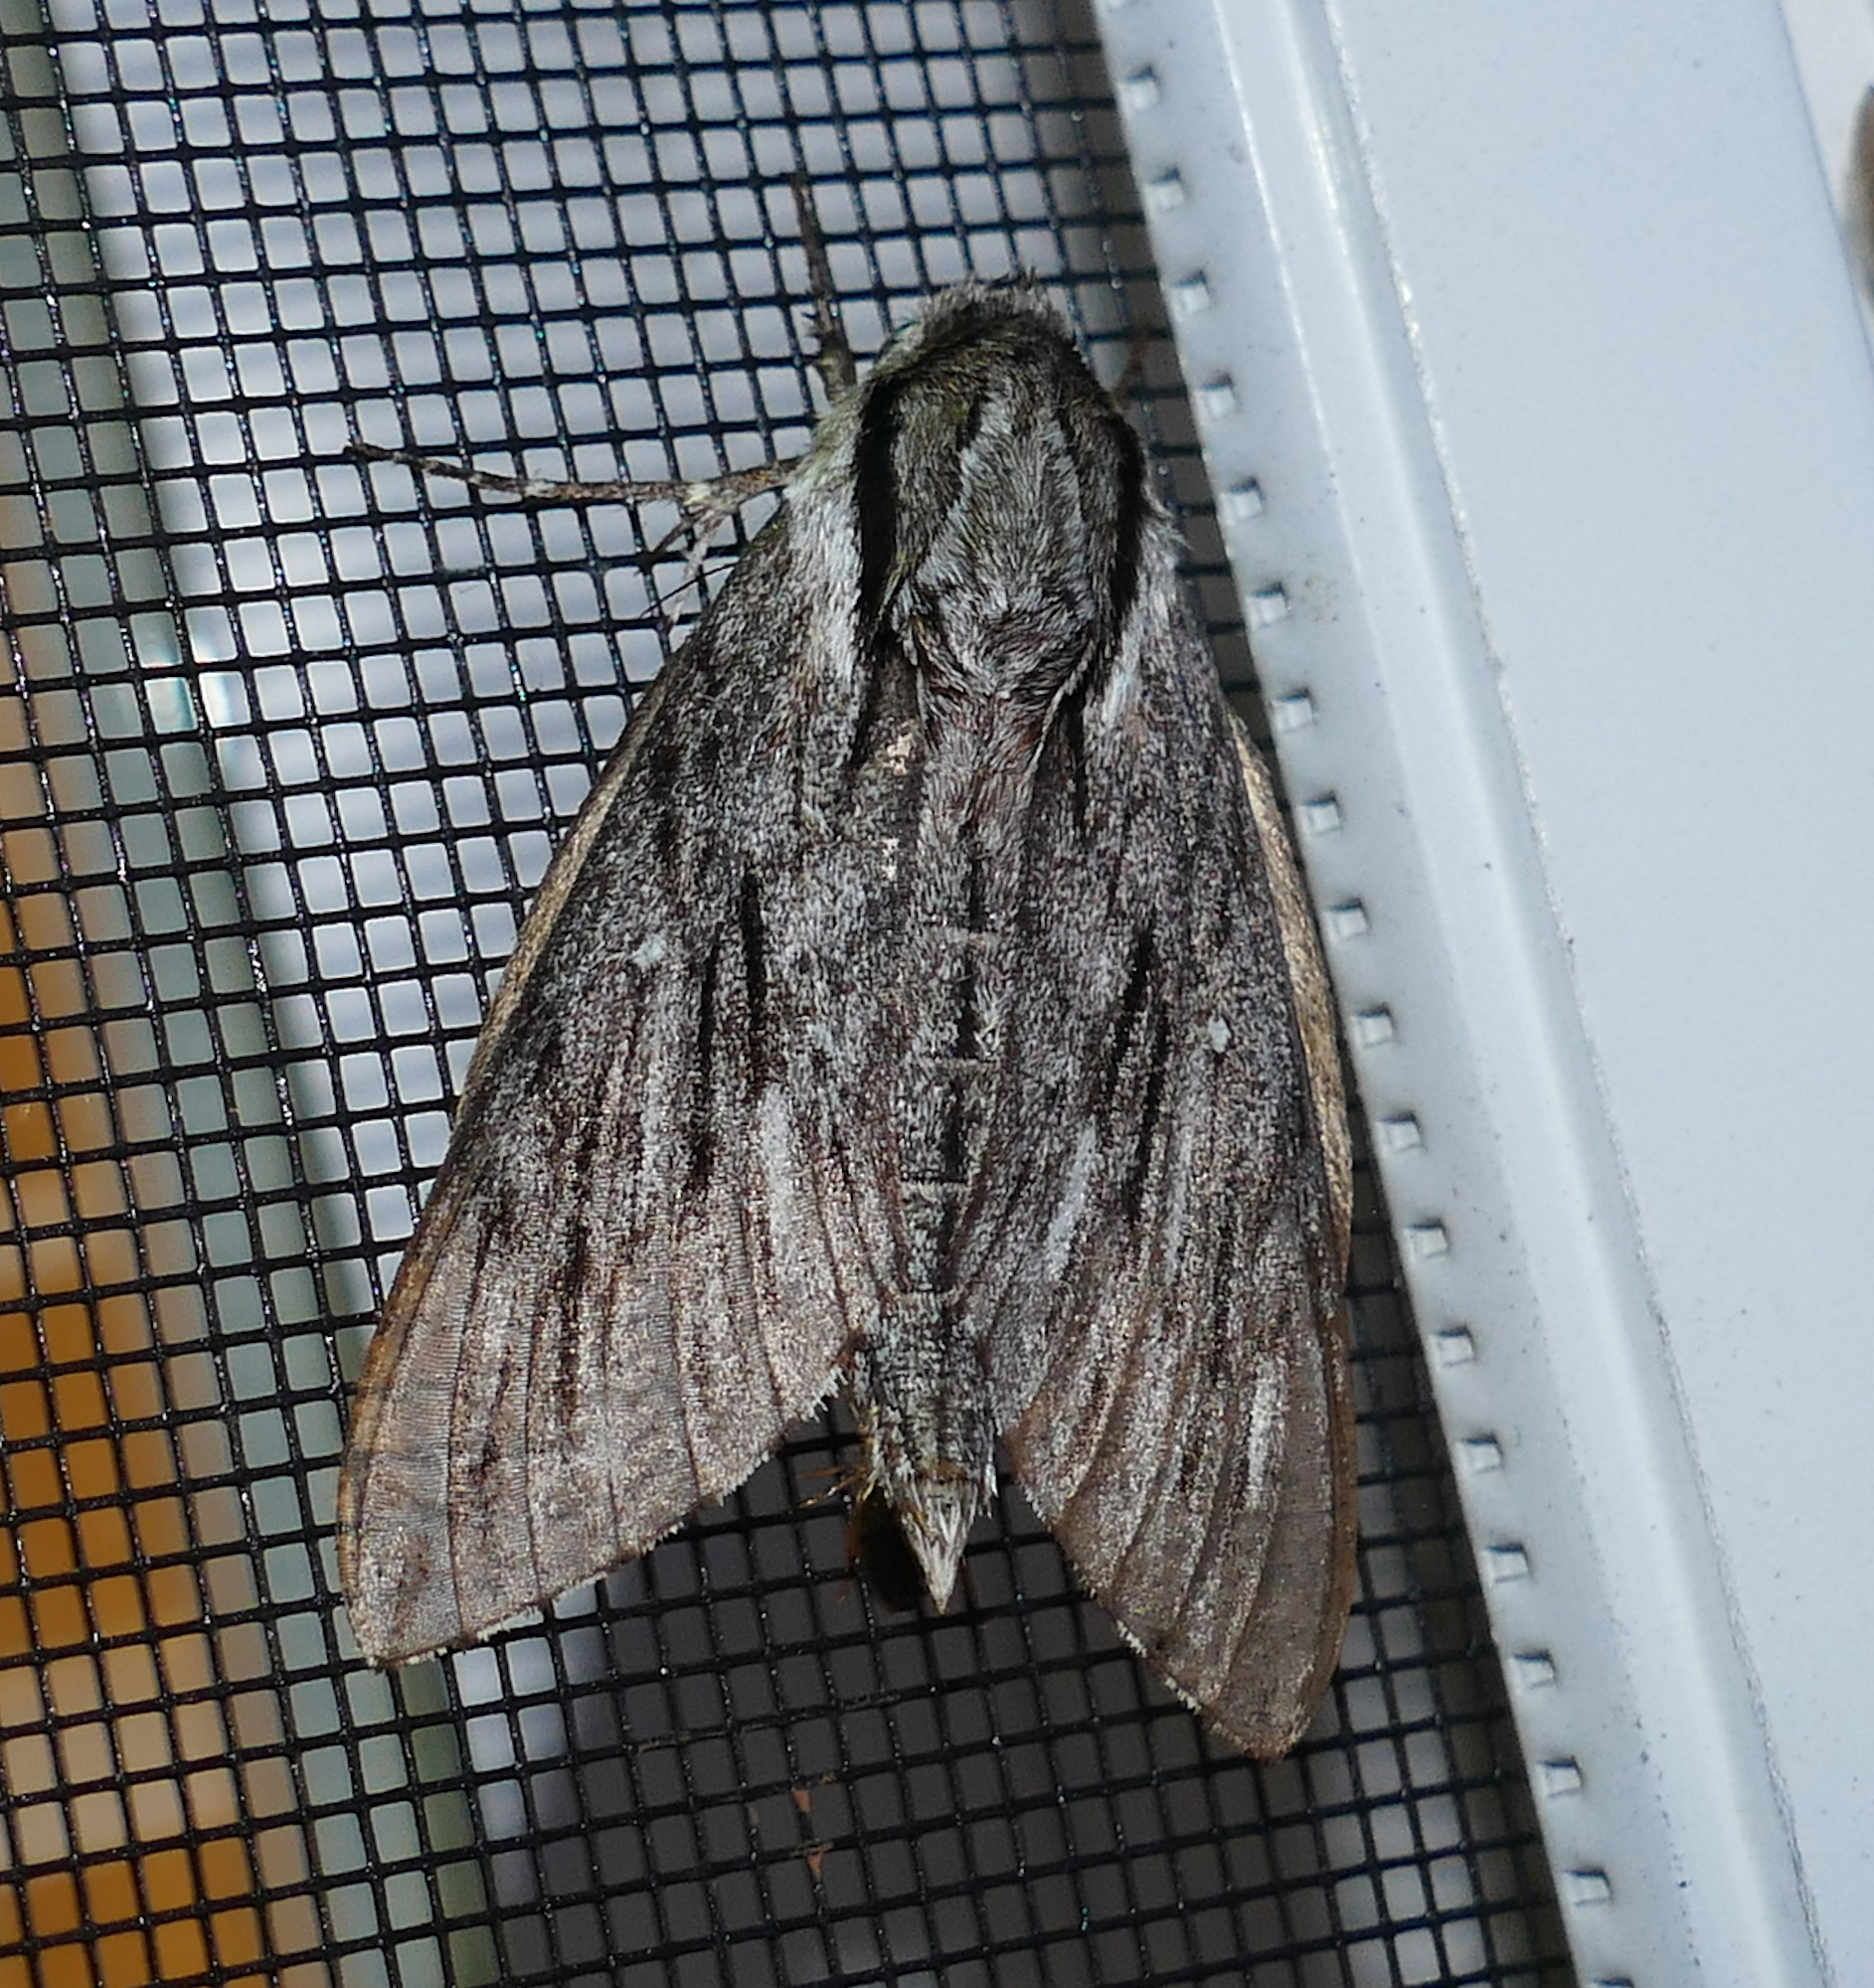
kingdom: Animalia
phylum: Arthropoda
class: Insecta
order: Lepidoptera
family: Sphingidae
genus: Paratrea
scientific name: Paratrea plebeja
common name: Plebian sphinx
